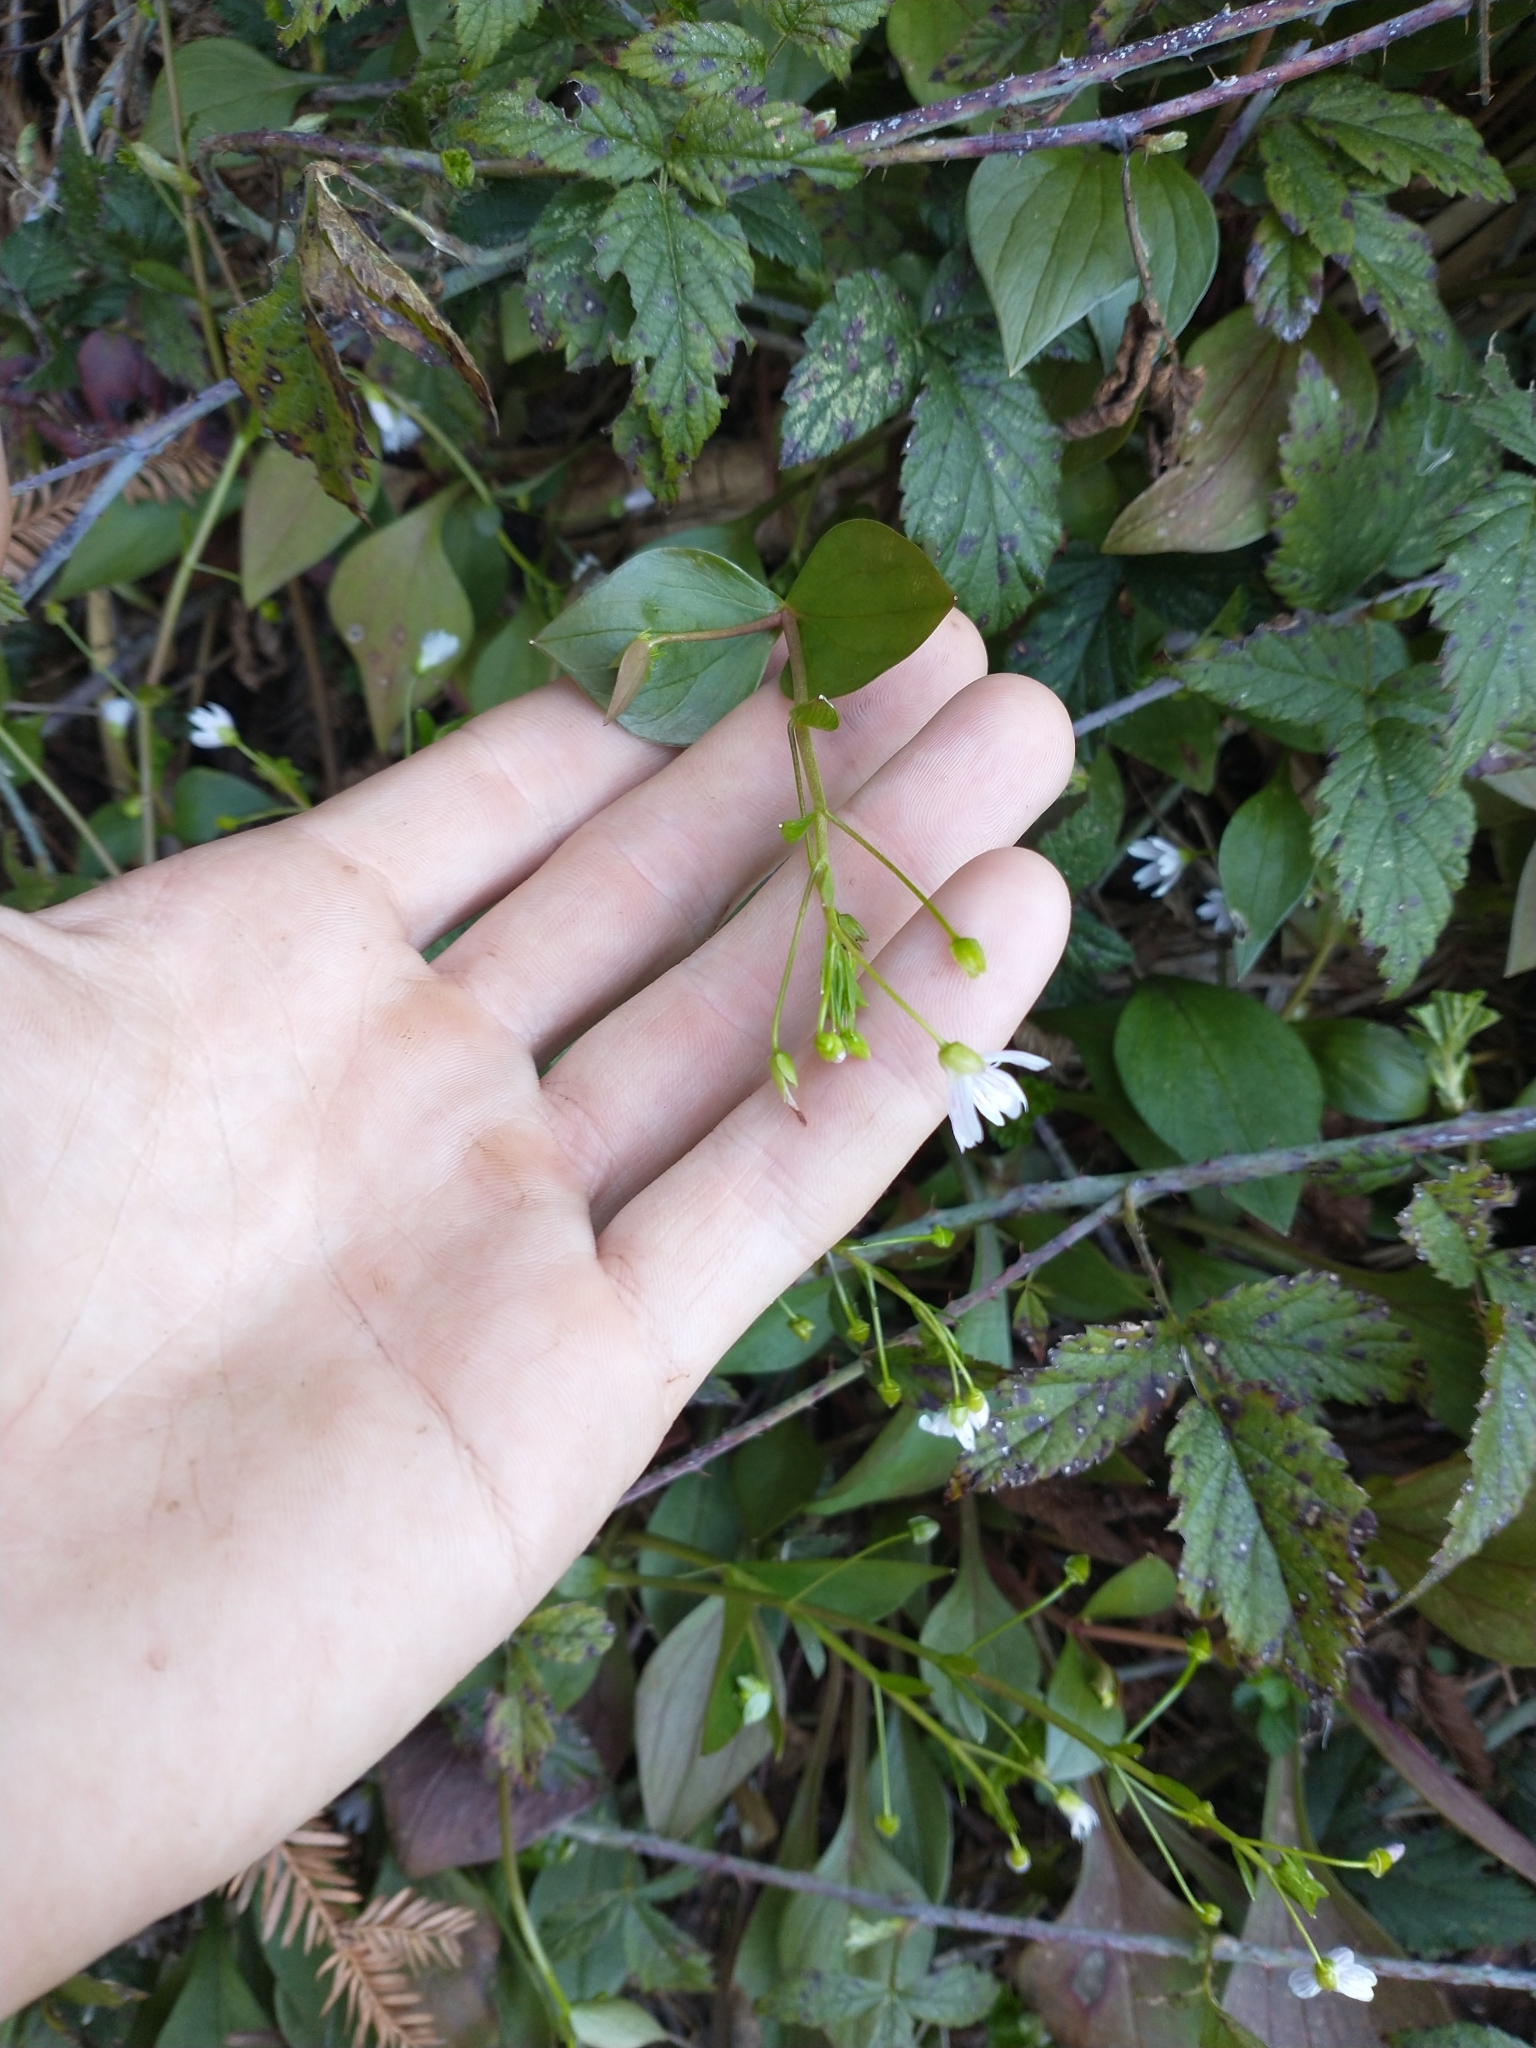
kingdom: Plantae
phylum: Tracheophyta
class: Magnoliopsida
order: Caryophyllales
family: Montiaceae
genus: Claytonia
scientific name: Claytonia sibirica
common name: Pink purslane
